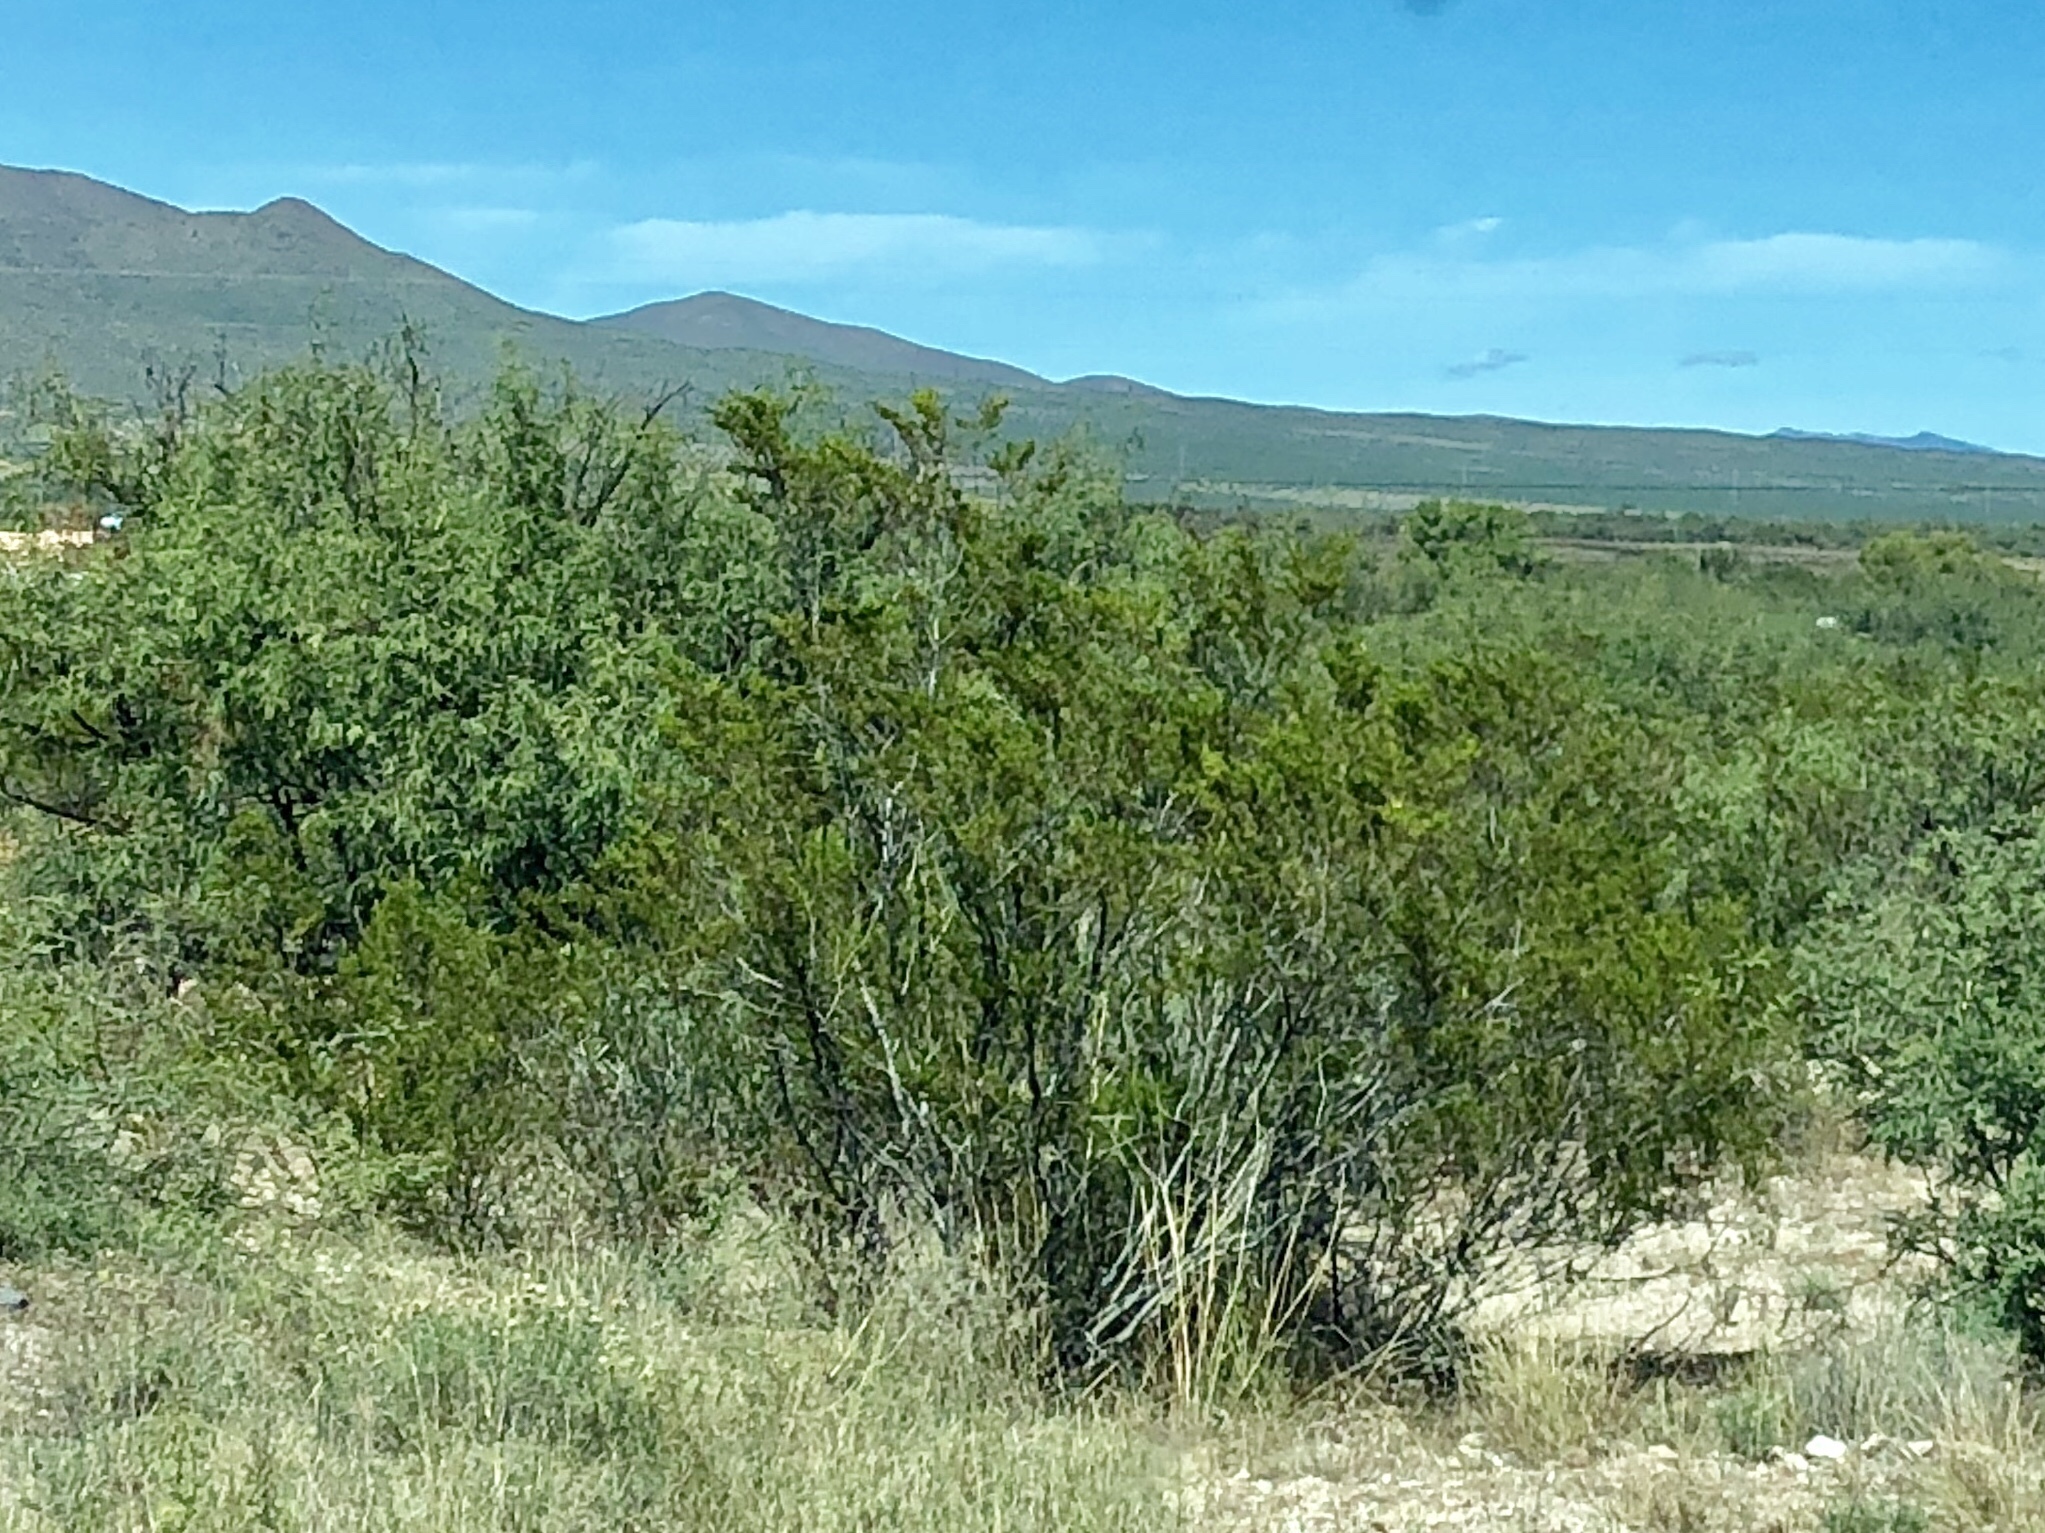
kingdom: Plantae
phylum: Tracheophyta
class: Magnoliopsida
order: Zygophyllales
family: Zygophyllaceae
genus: Larrea
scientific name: Larrea tridentata
